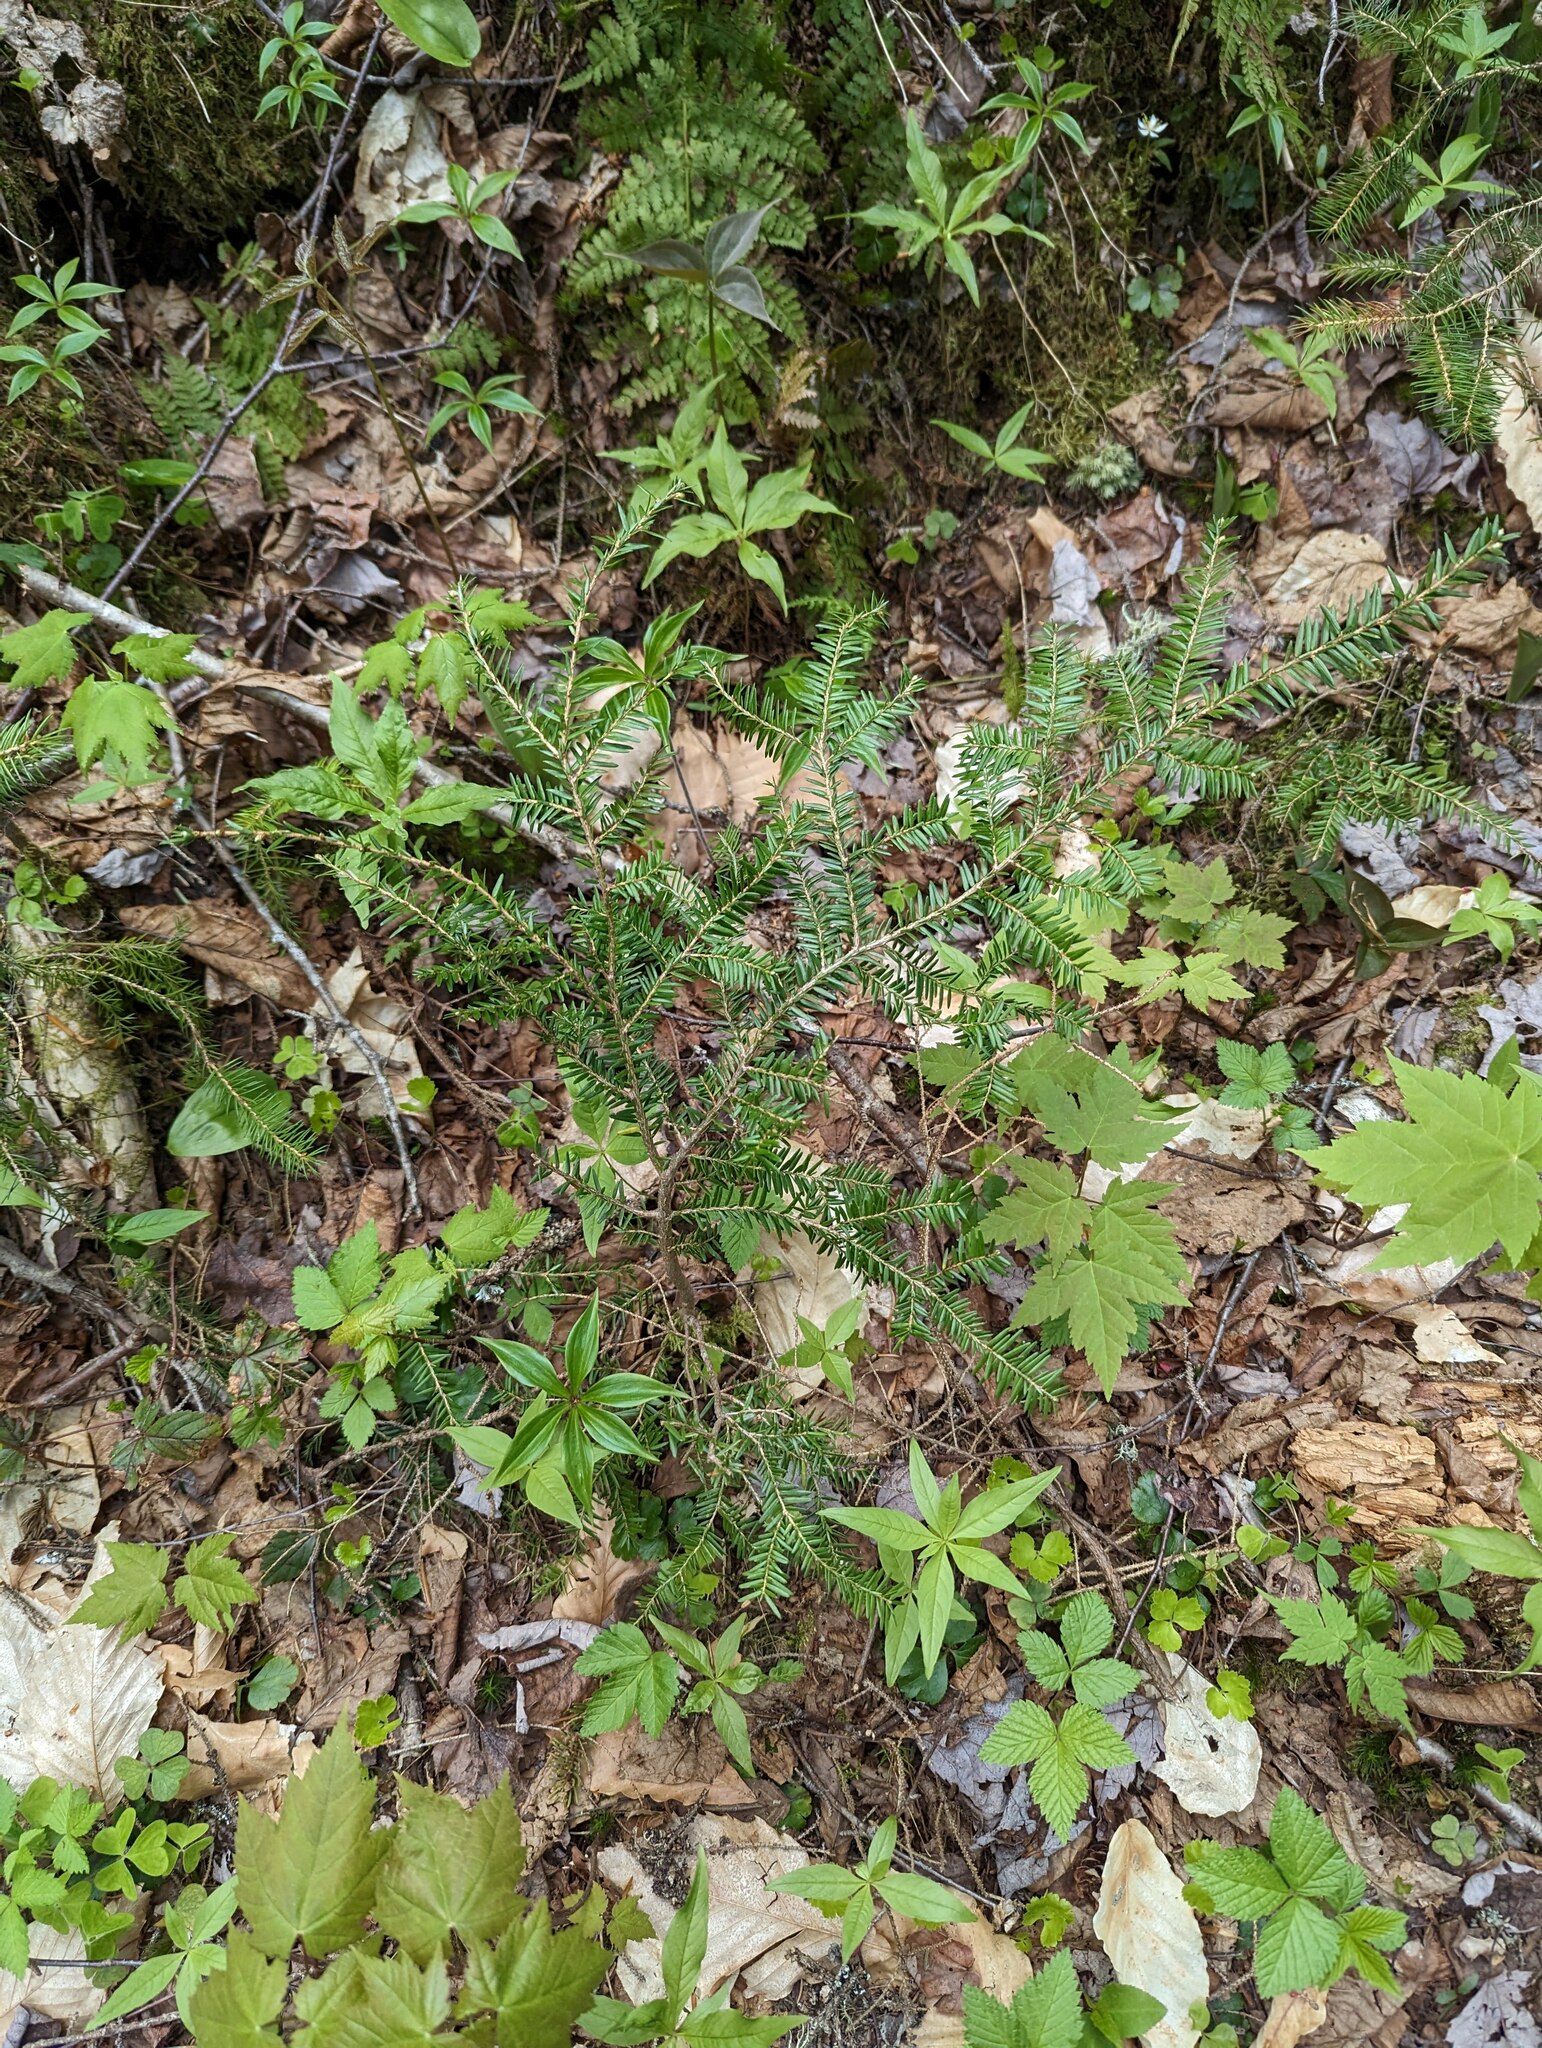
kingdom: Plantae
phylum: Tracheophyta
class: Pinopsida
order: Pinales
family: Pinaceae
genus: Tsuga
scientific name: Tsuga canadensis
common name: Eastern hemlock
